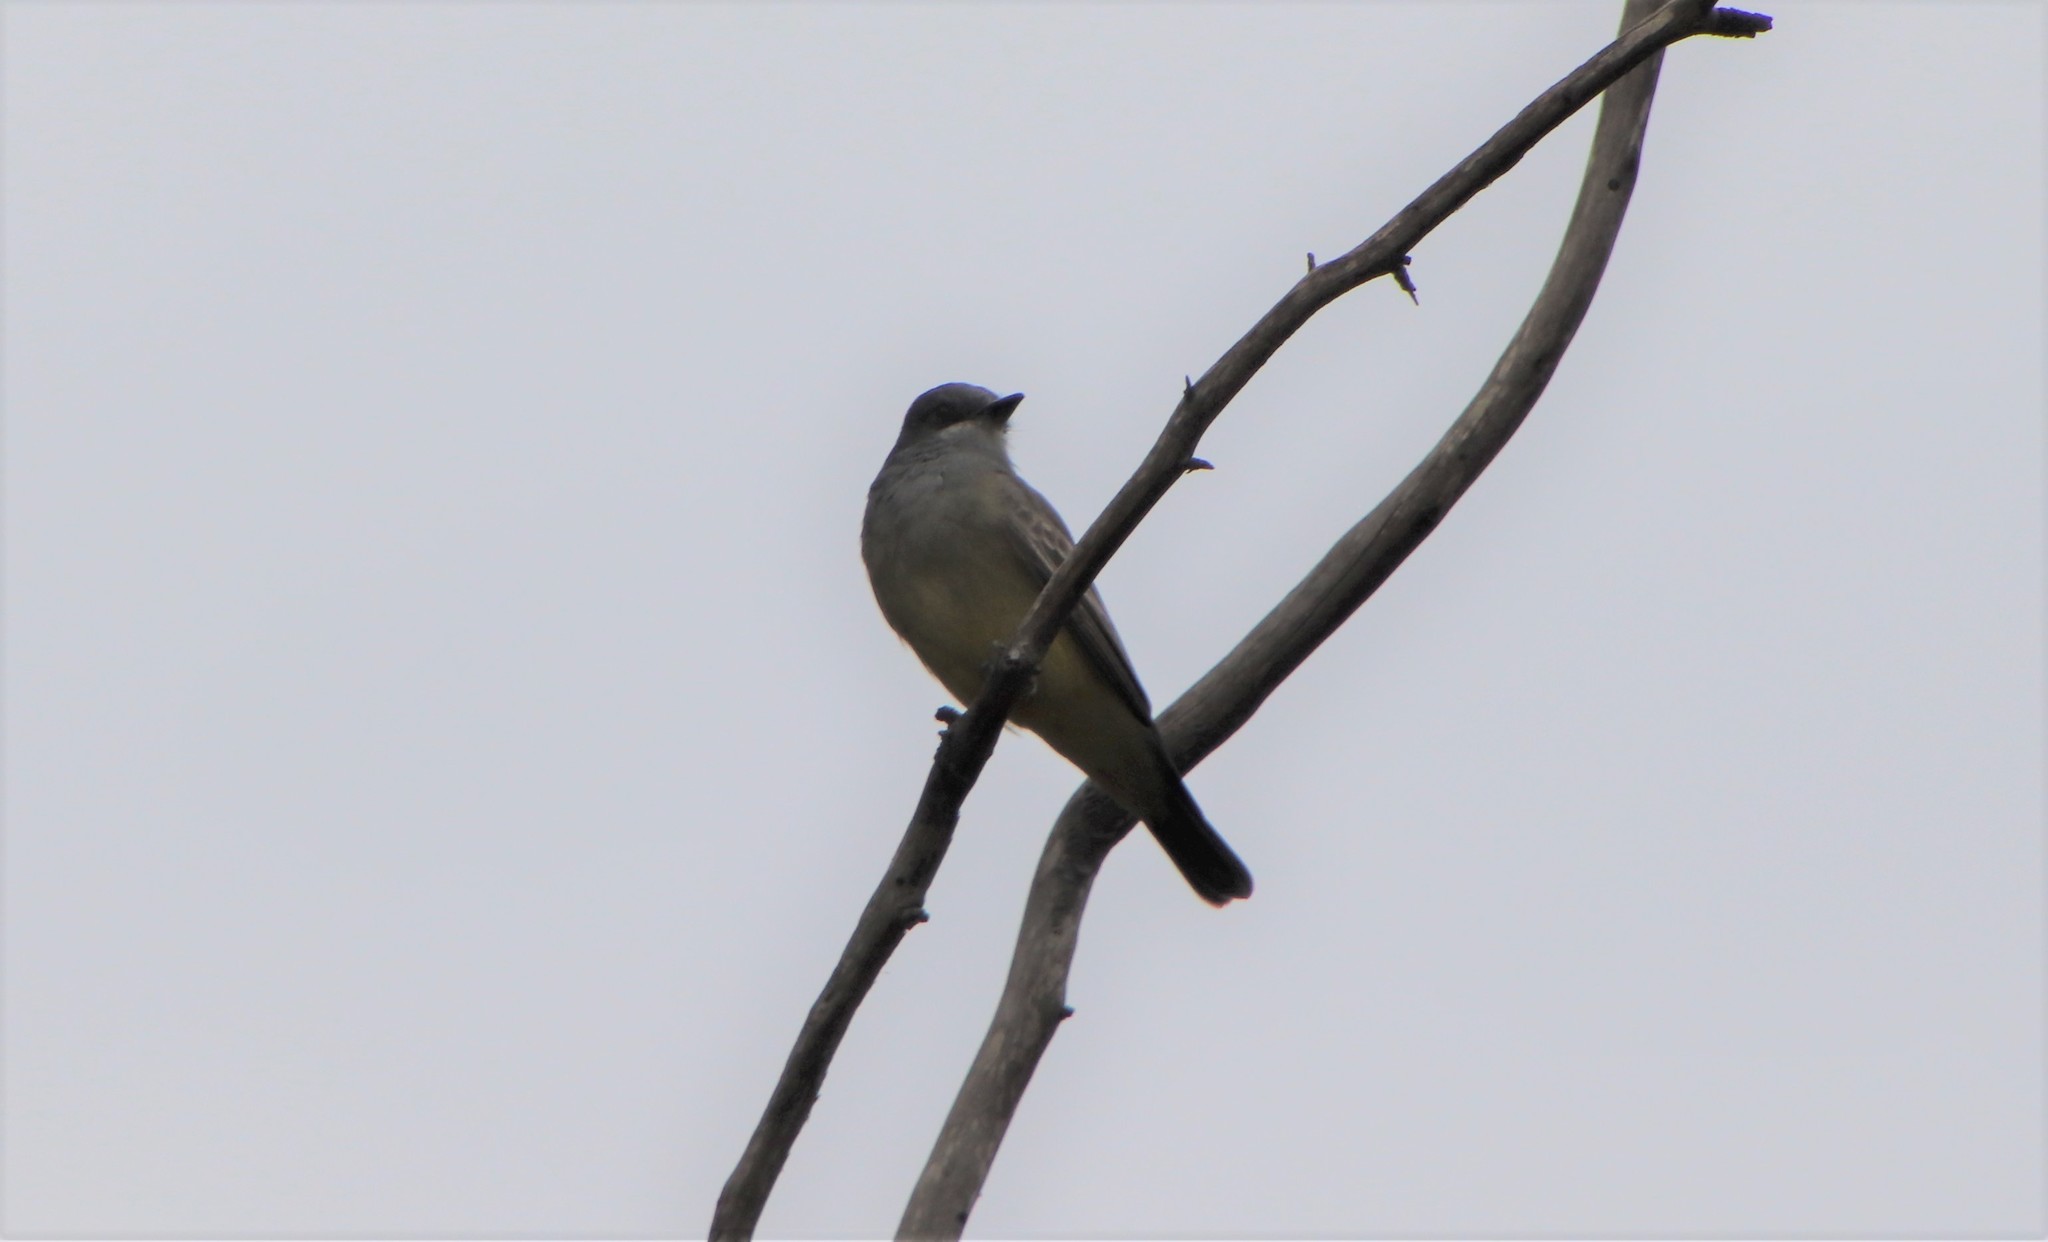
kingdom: Animalia
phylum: Chordata
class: Aves
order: Passeriformes
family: Tyrannidae
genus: Tyrannus
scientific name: Tyrannus vociferans
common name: Cassin's kingbird
